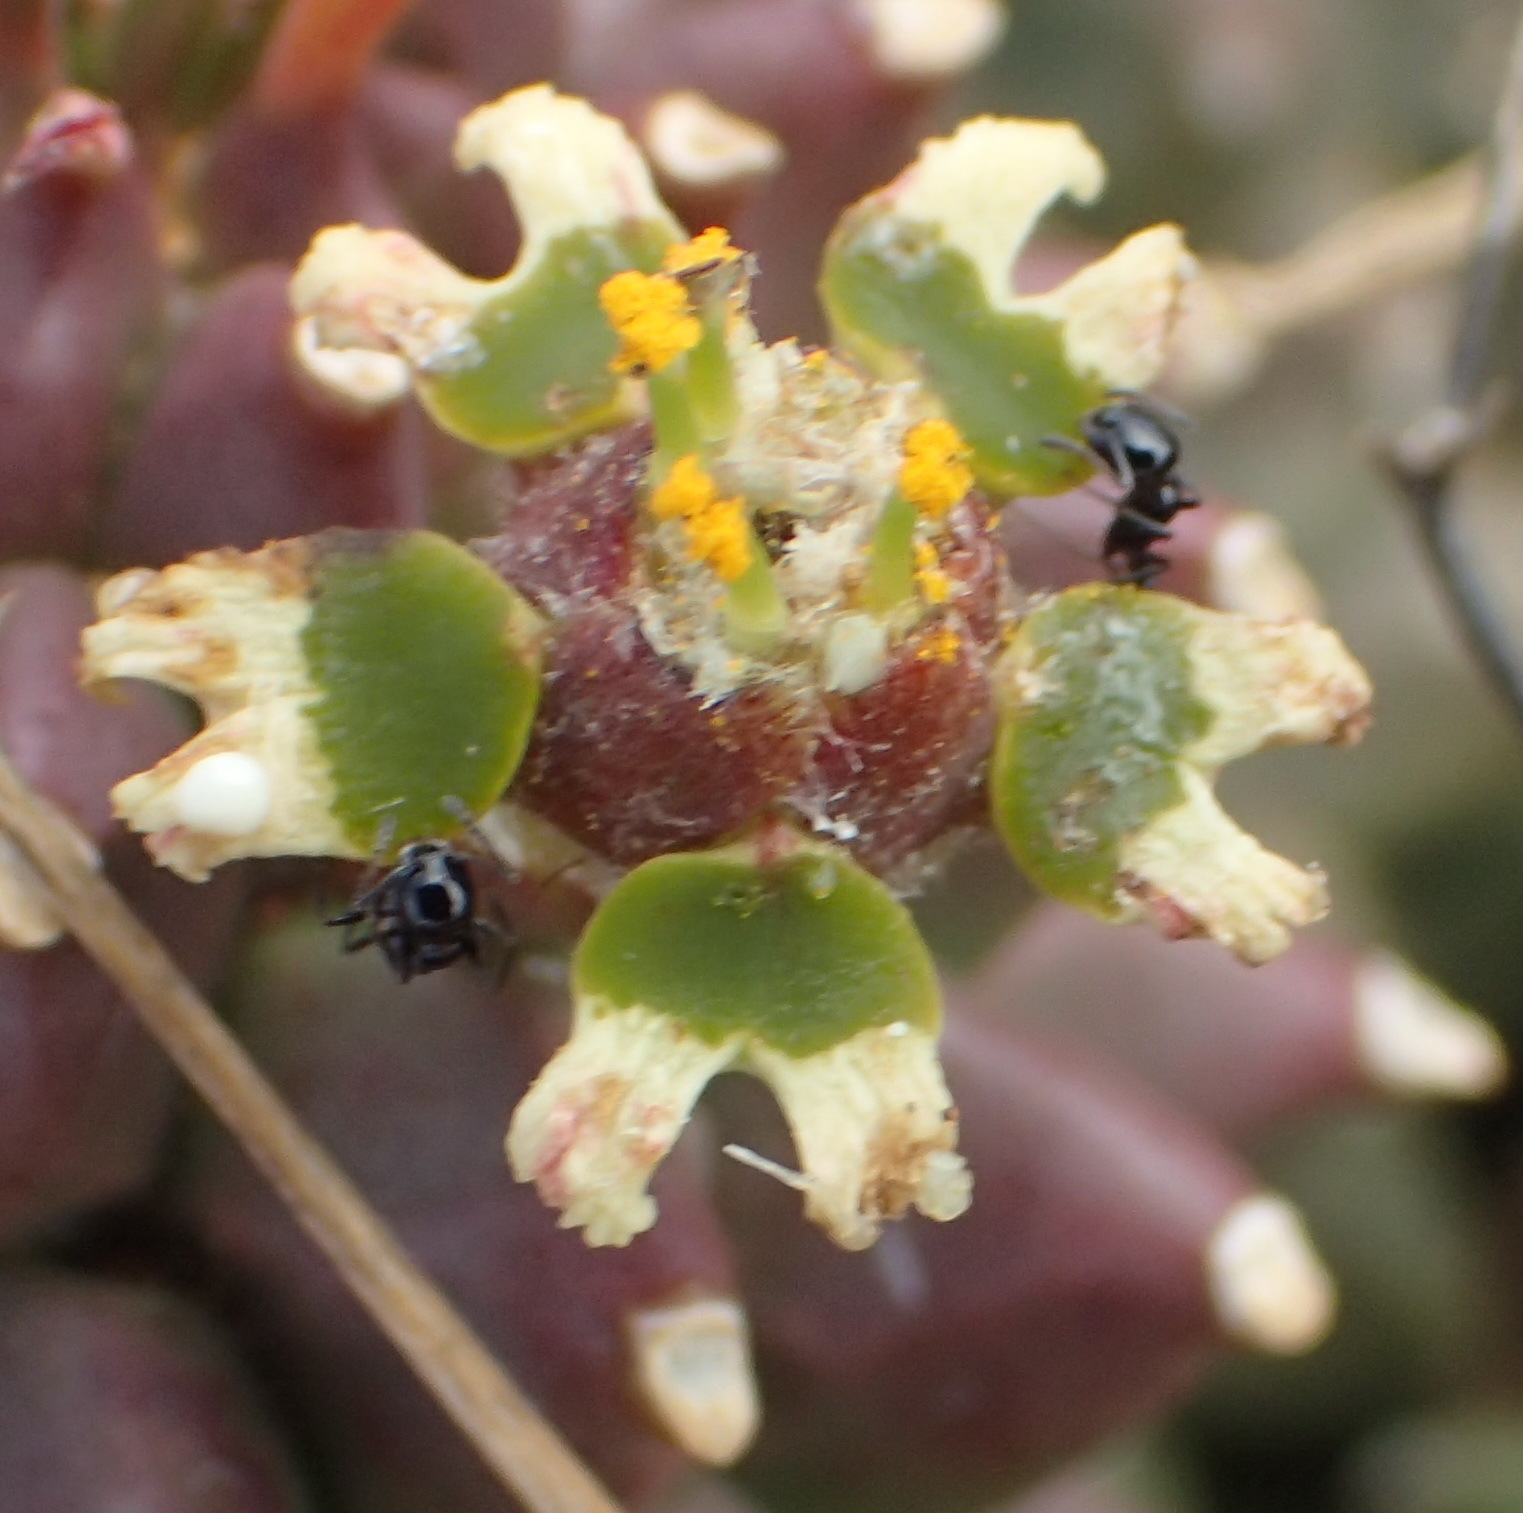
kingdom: Plantae
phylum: Tracheophyta
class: Magnoliopsida
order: Malpighiales
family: Euphorbiaceae
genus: Euphorbia
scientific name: Euphorbia caput-medusae
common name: Medusa's-head
